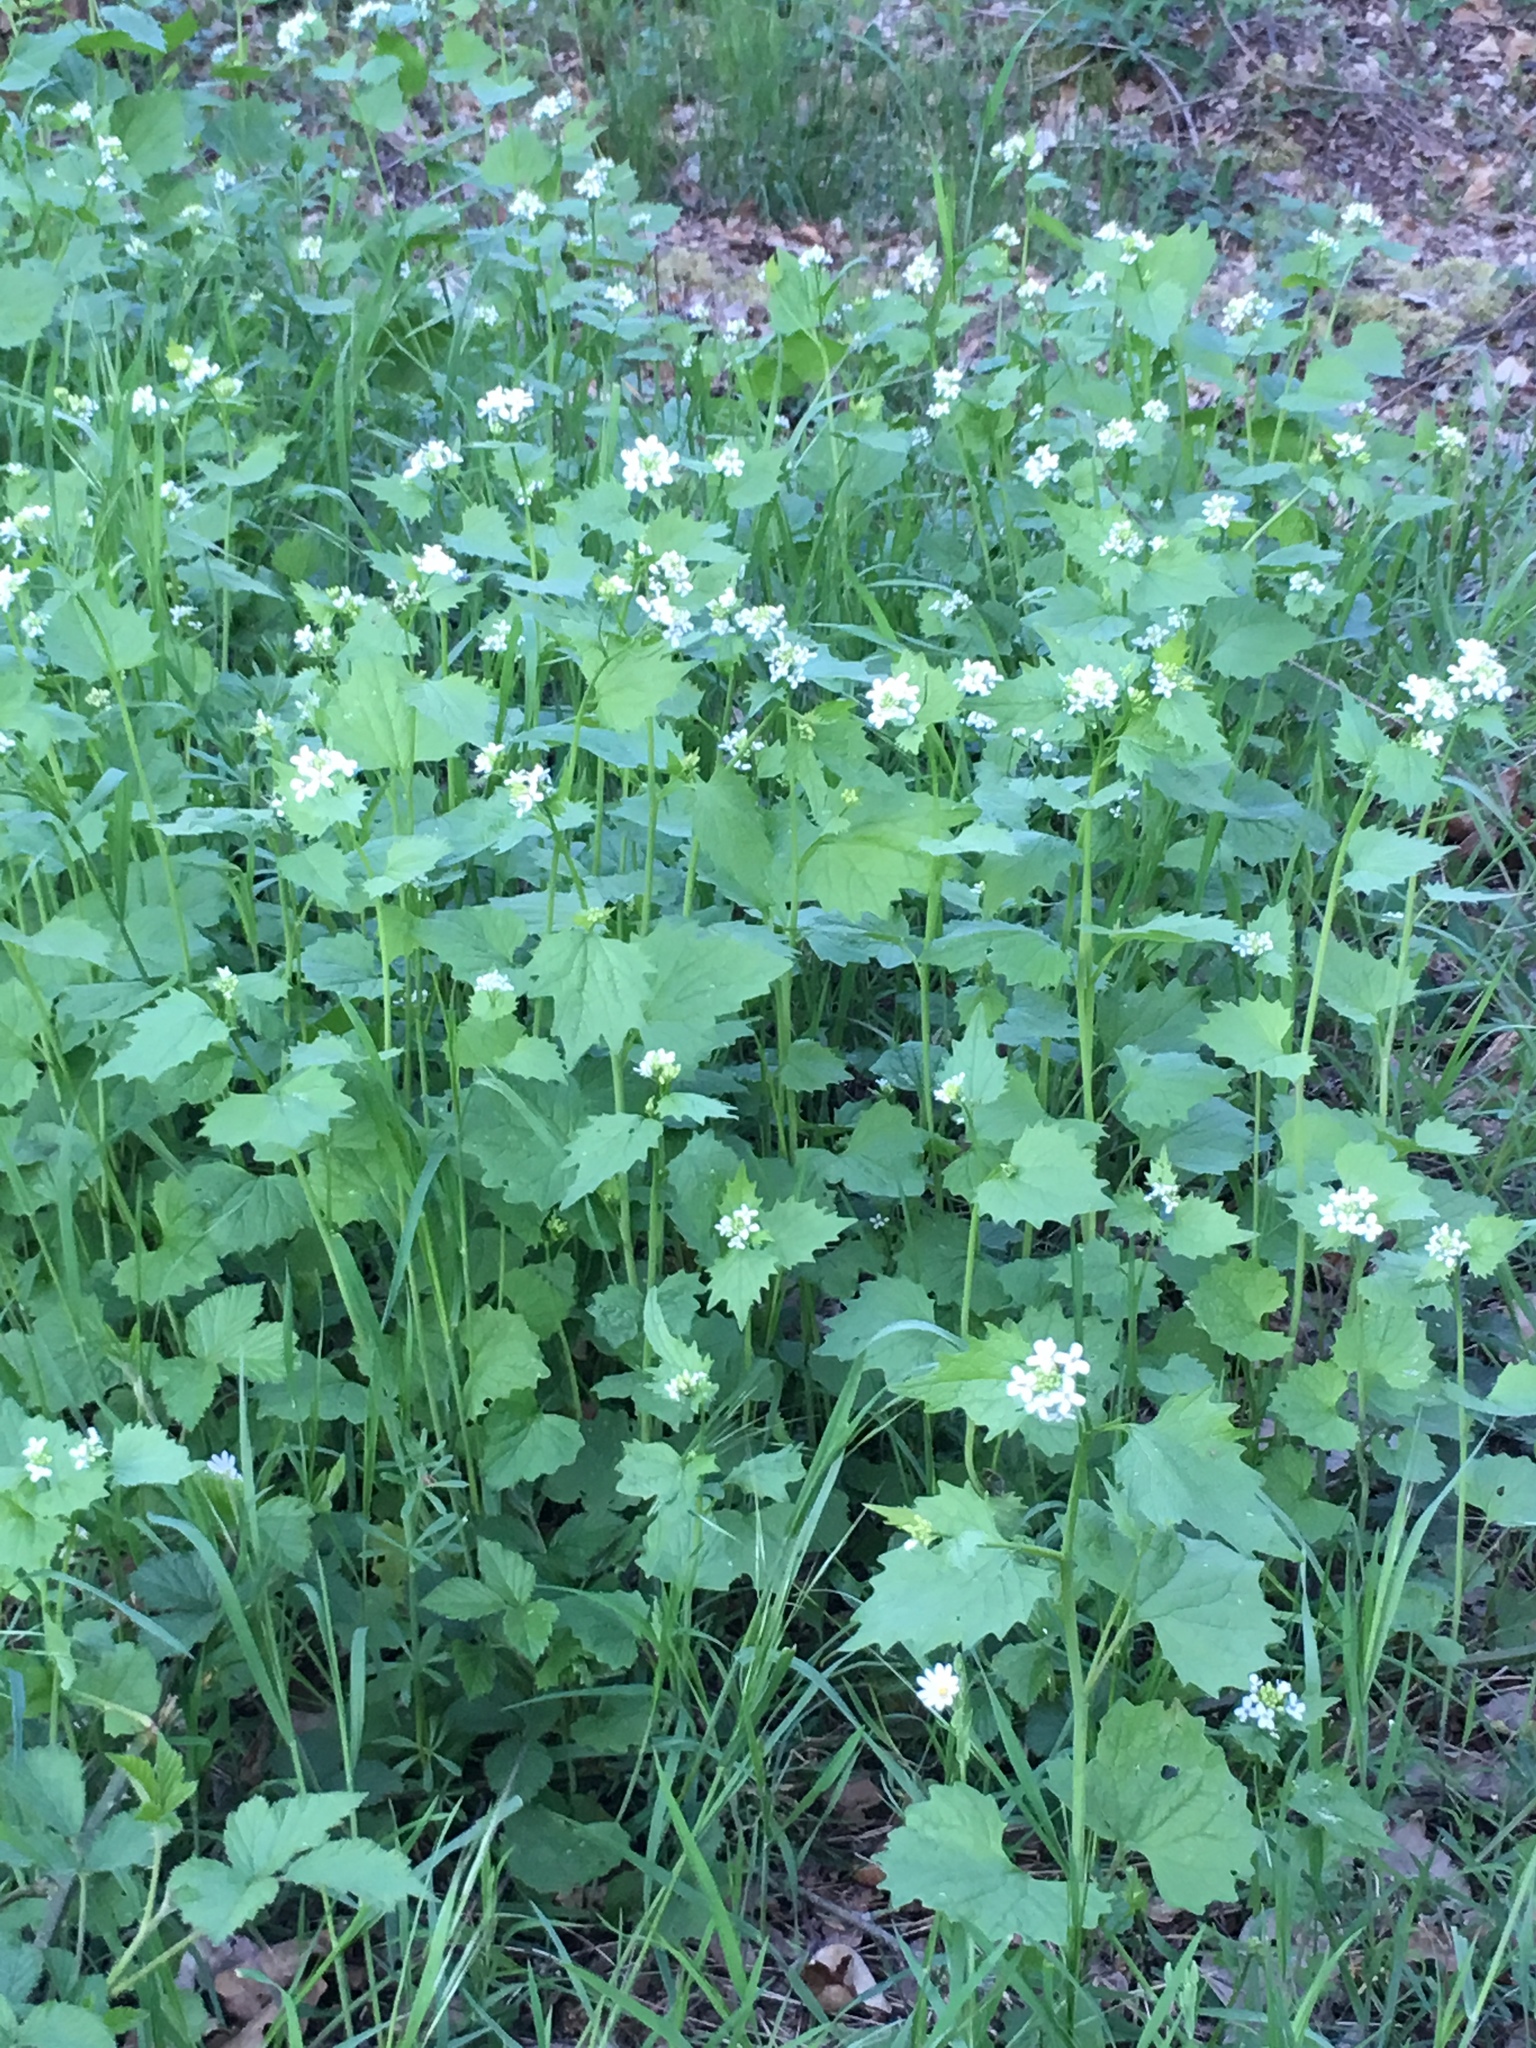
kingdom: Plantae
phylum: Tracheophyta
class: Magnoliopsida
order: Brassicales
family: Brassicaceae
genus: Alliaria
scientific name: Alliaria petiolata
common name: Garlic mustard
